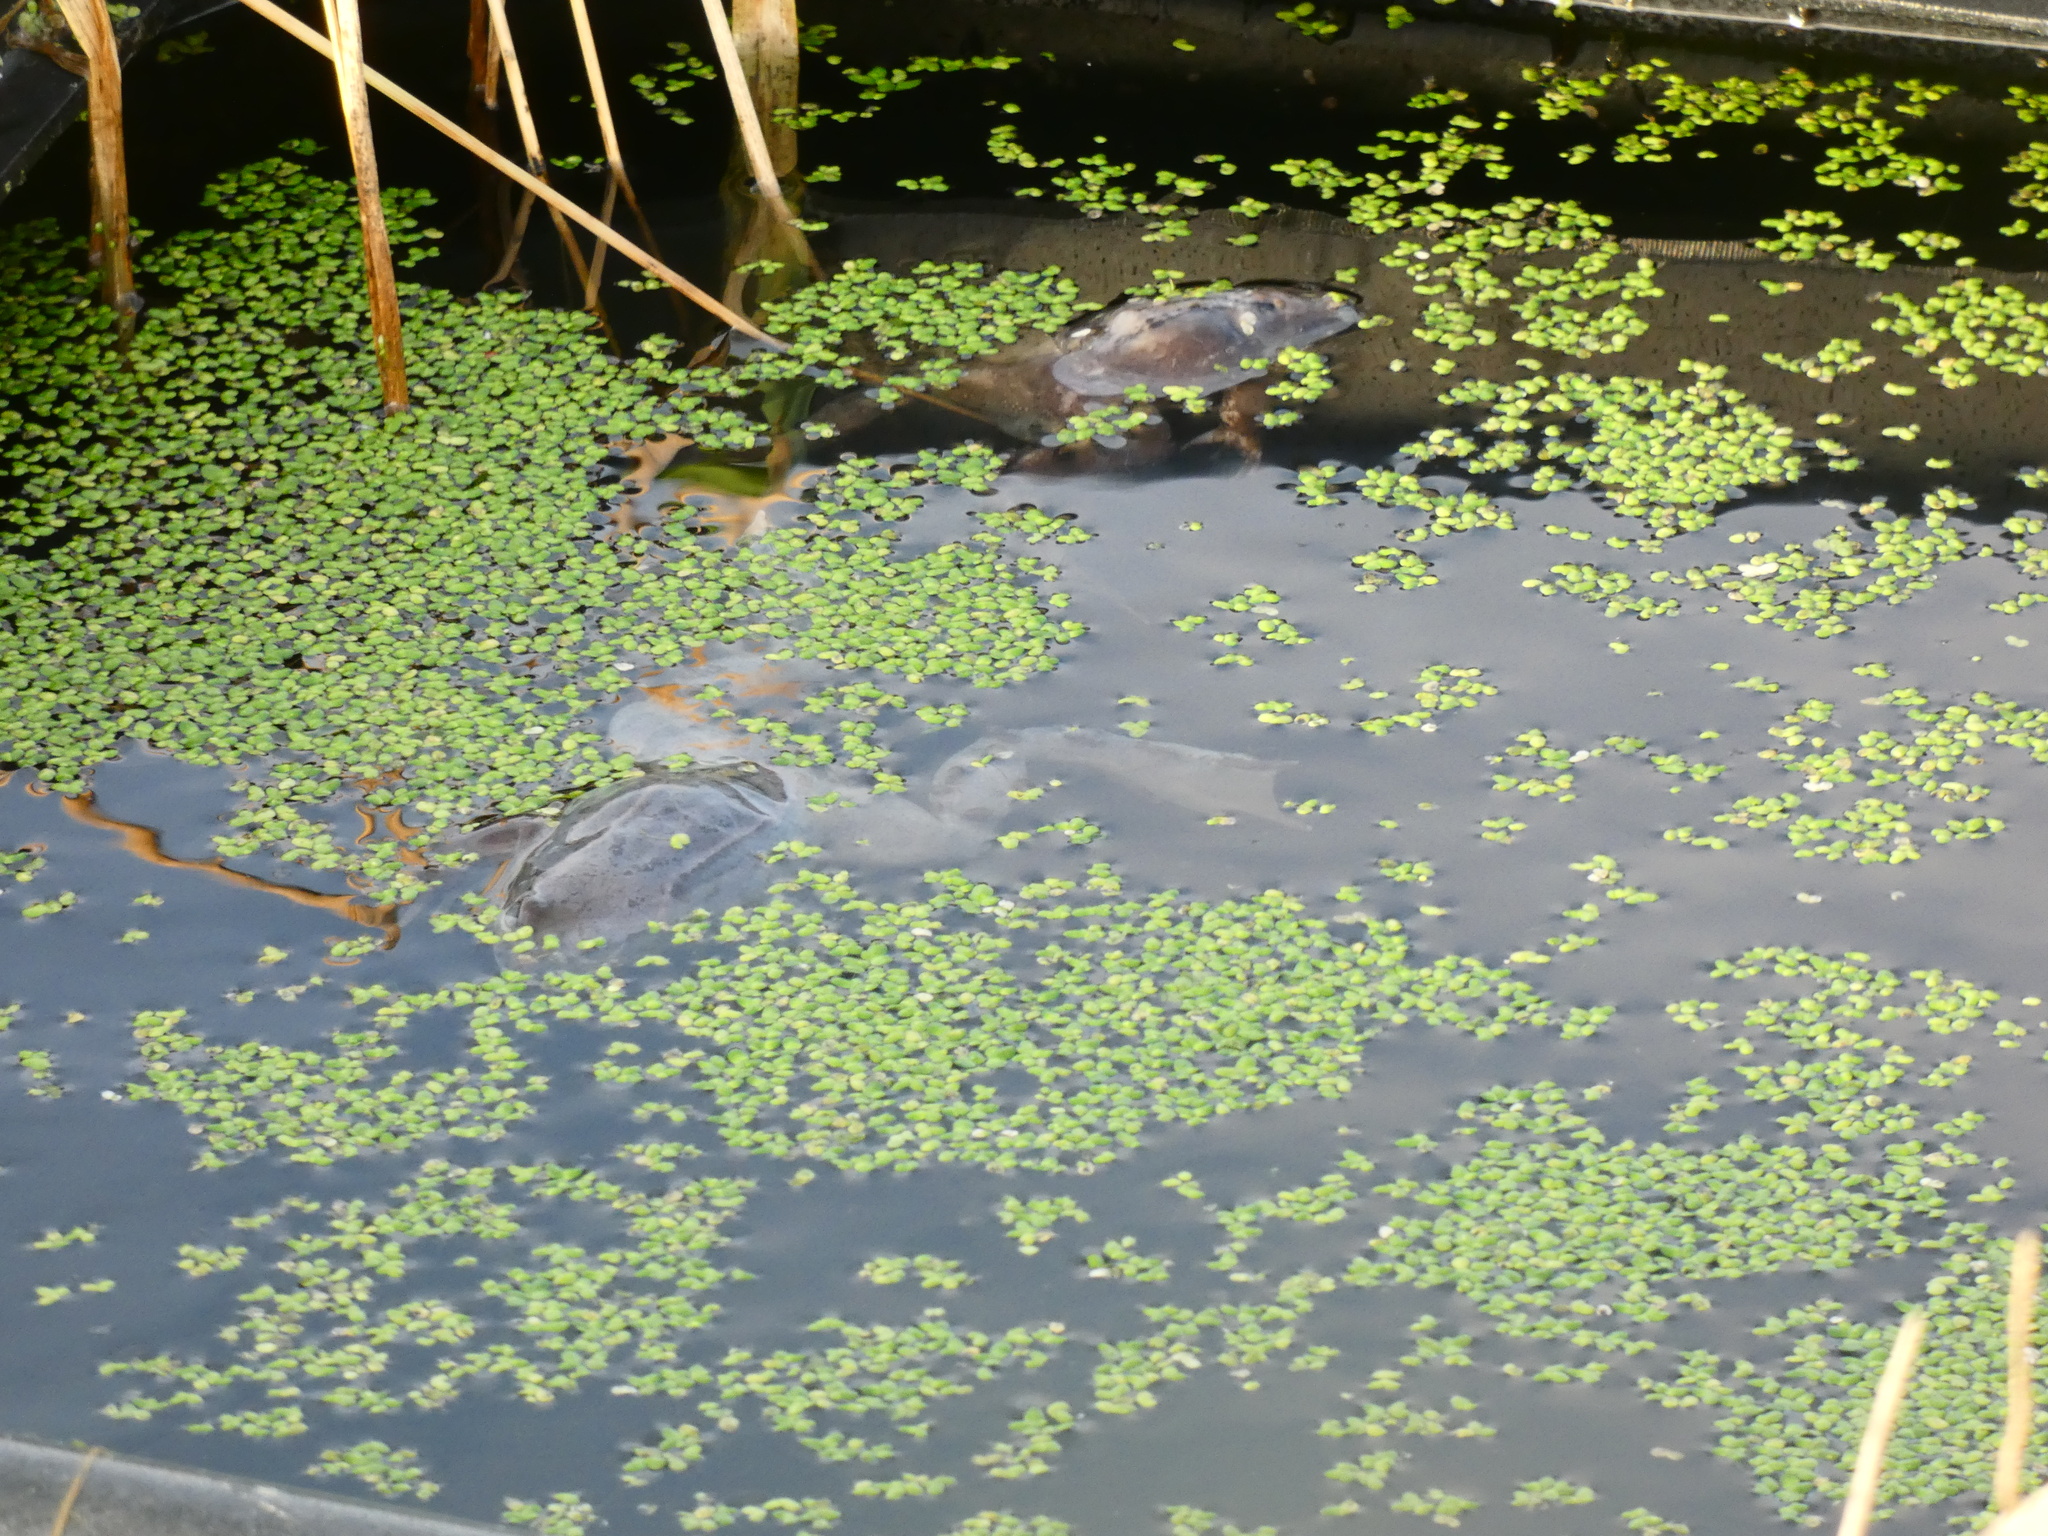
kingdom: Animalia
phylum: Chordata
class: Amphibia
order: Anura
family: Ranidae
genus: Rana
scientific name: Rana temporaria
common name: Common frog
